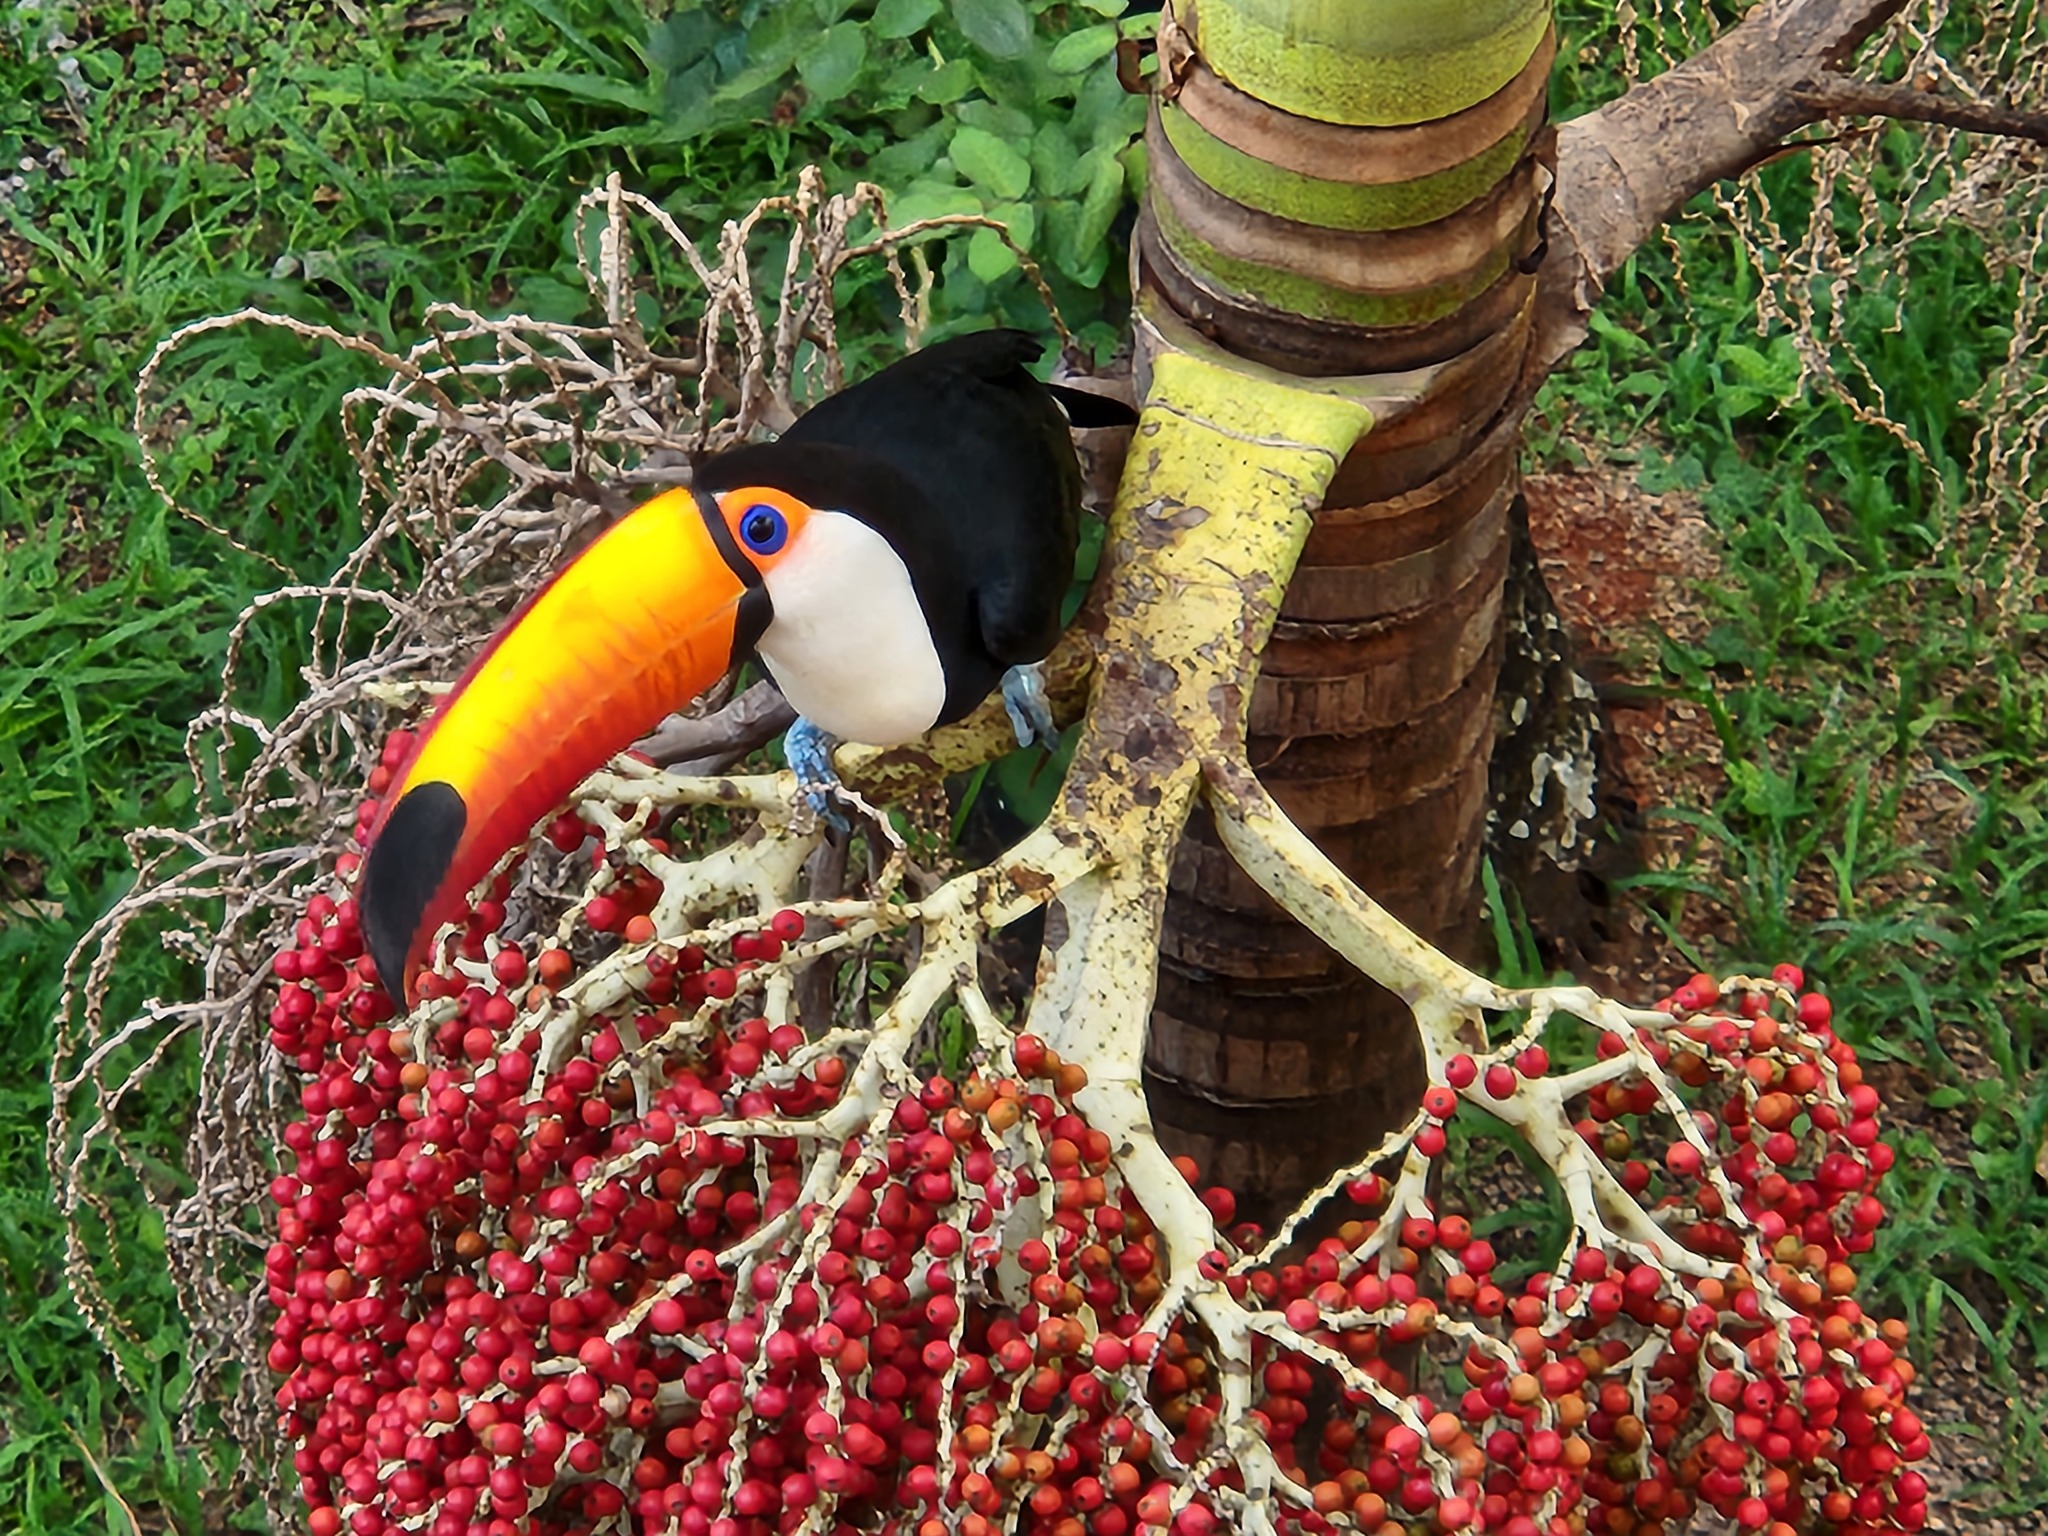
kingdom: Animalia
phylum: Chordata
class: Aves
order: Piciformes
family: Ramphastidae
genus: Ramphastos
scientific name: Ramphastos toco
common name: Toco toucan
